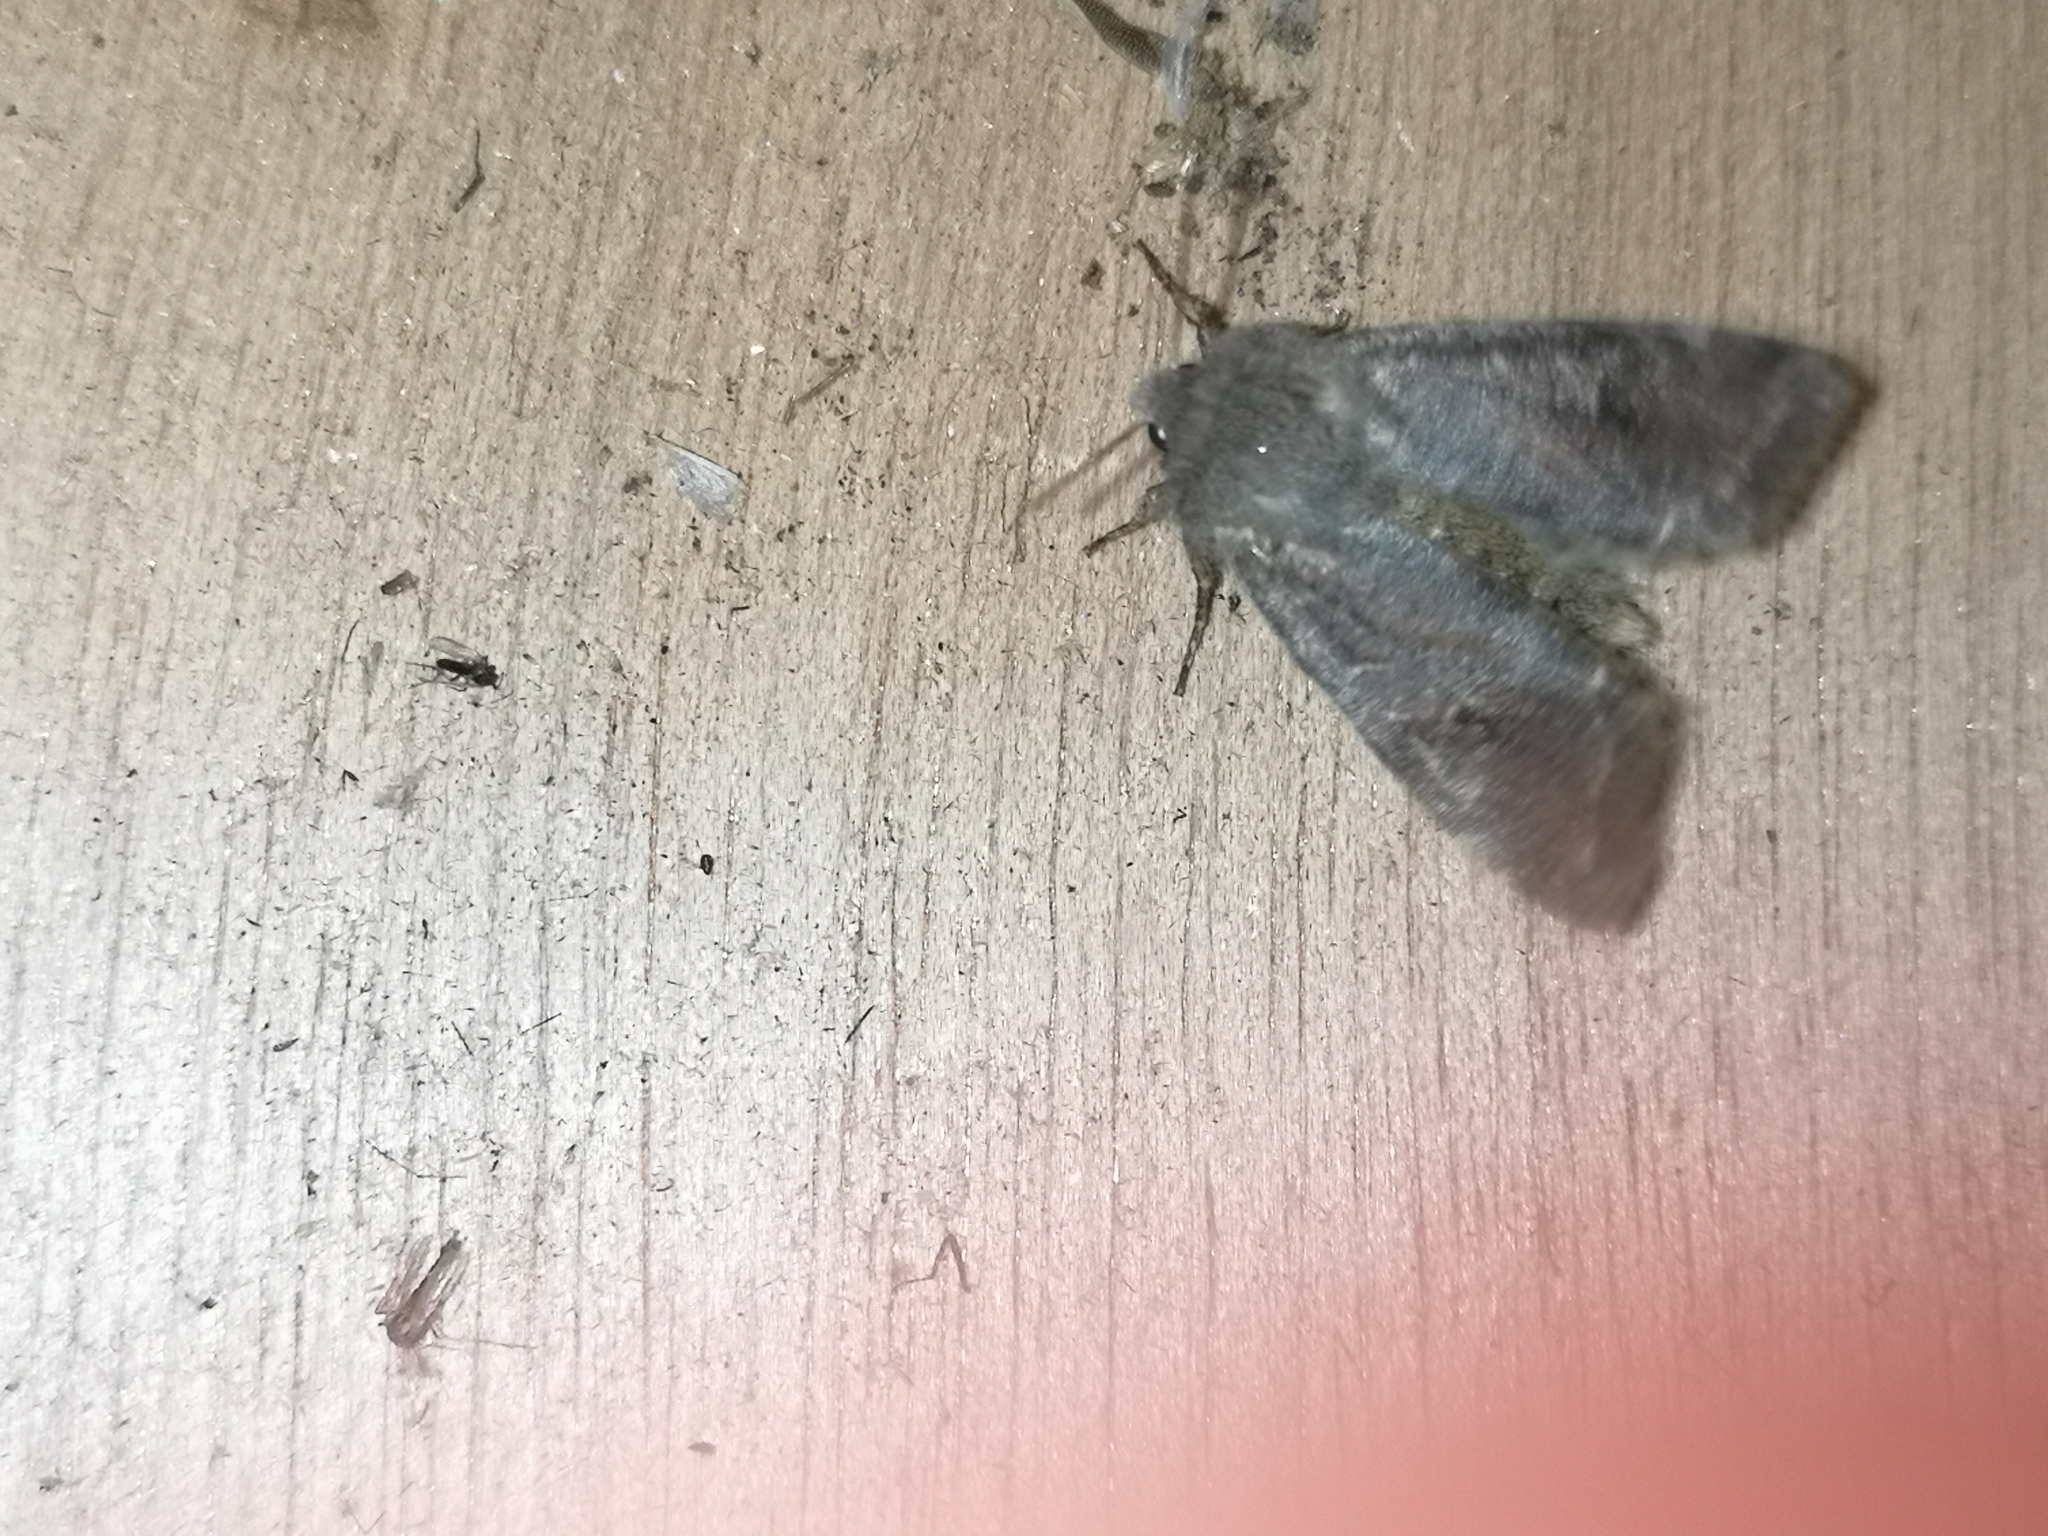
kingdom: Animalia
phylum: Arthropoda
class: Insecta
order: Lepidoptera
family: Noctuidae
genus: Orthosia
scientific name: Orthosia incerta
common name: Clouded drab
